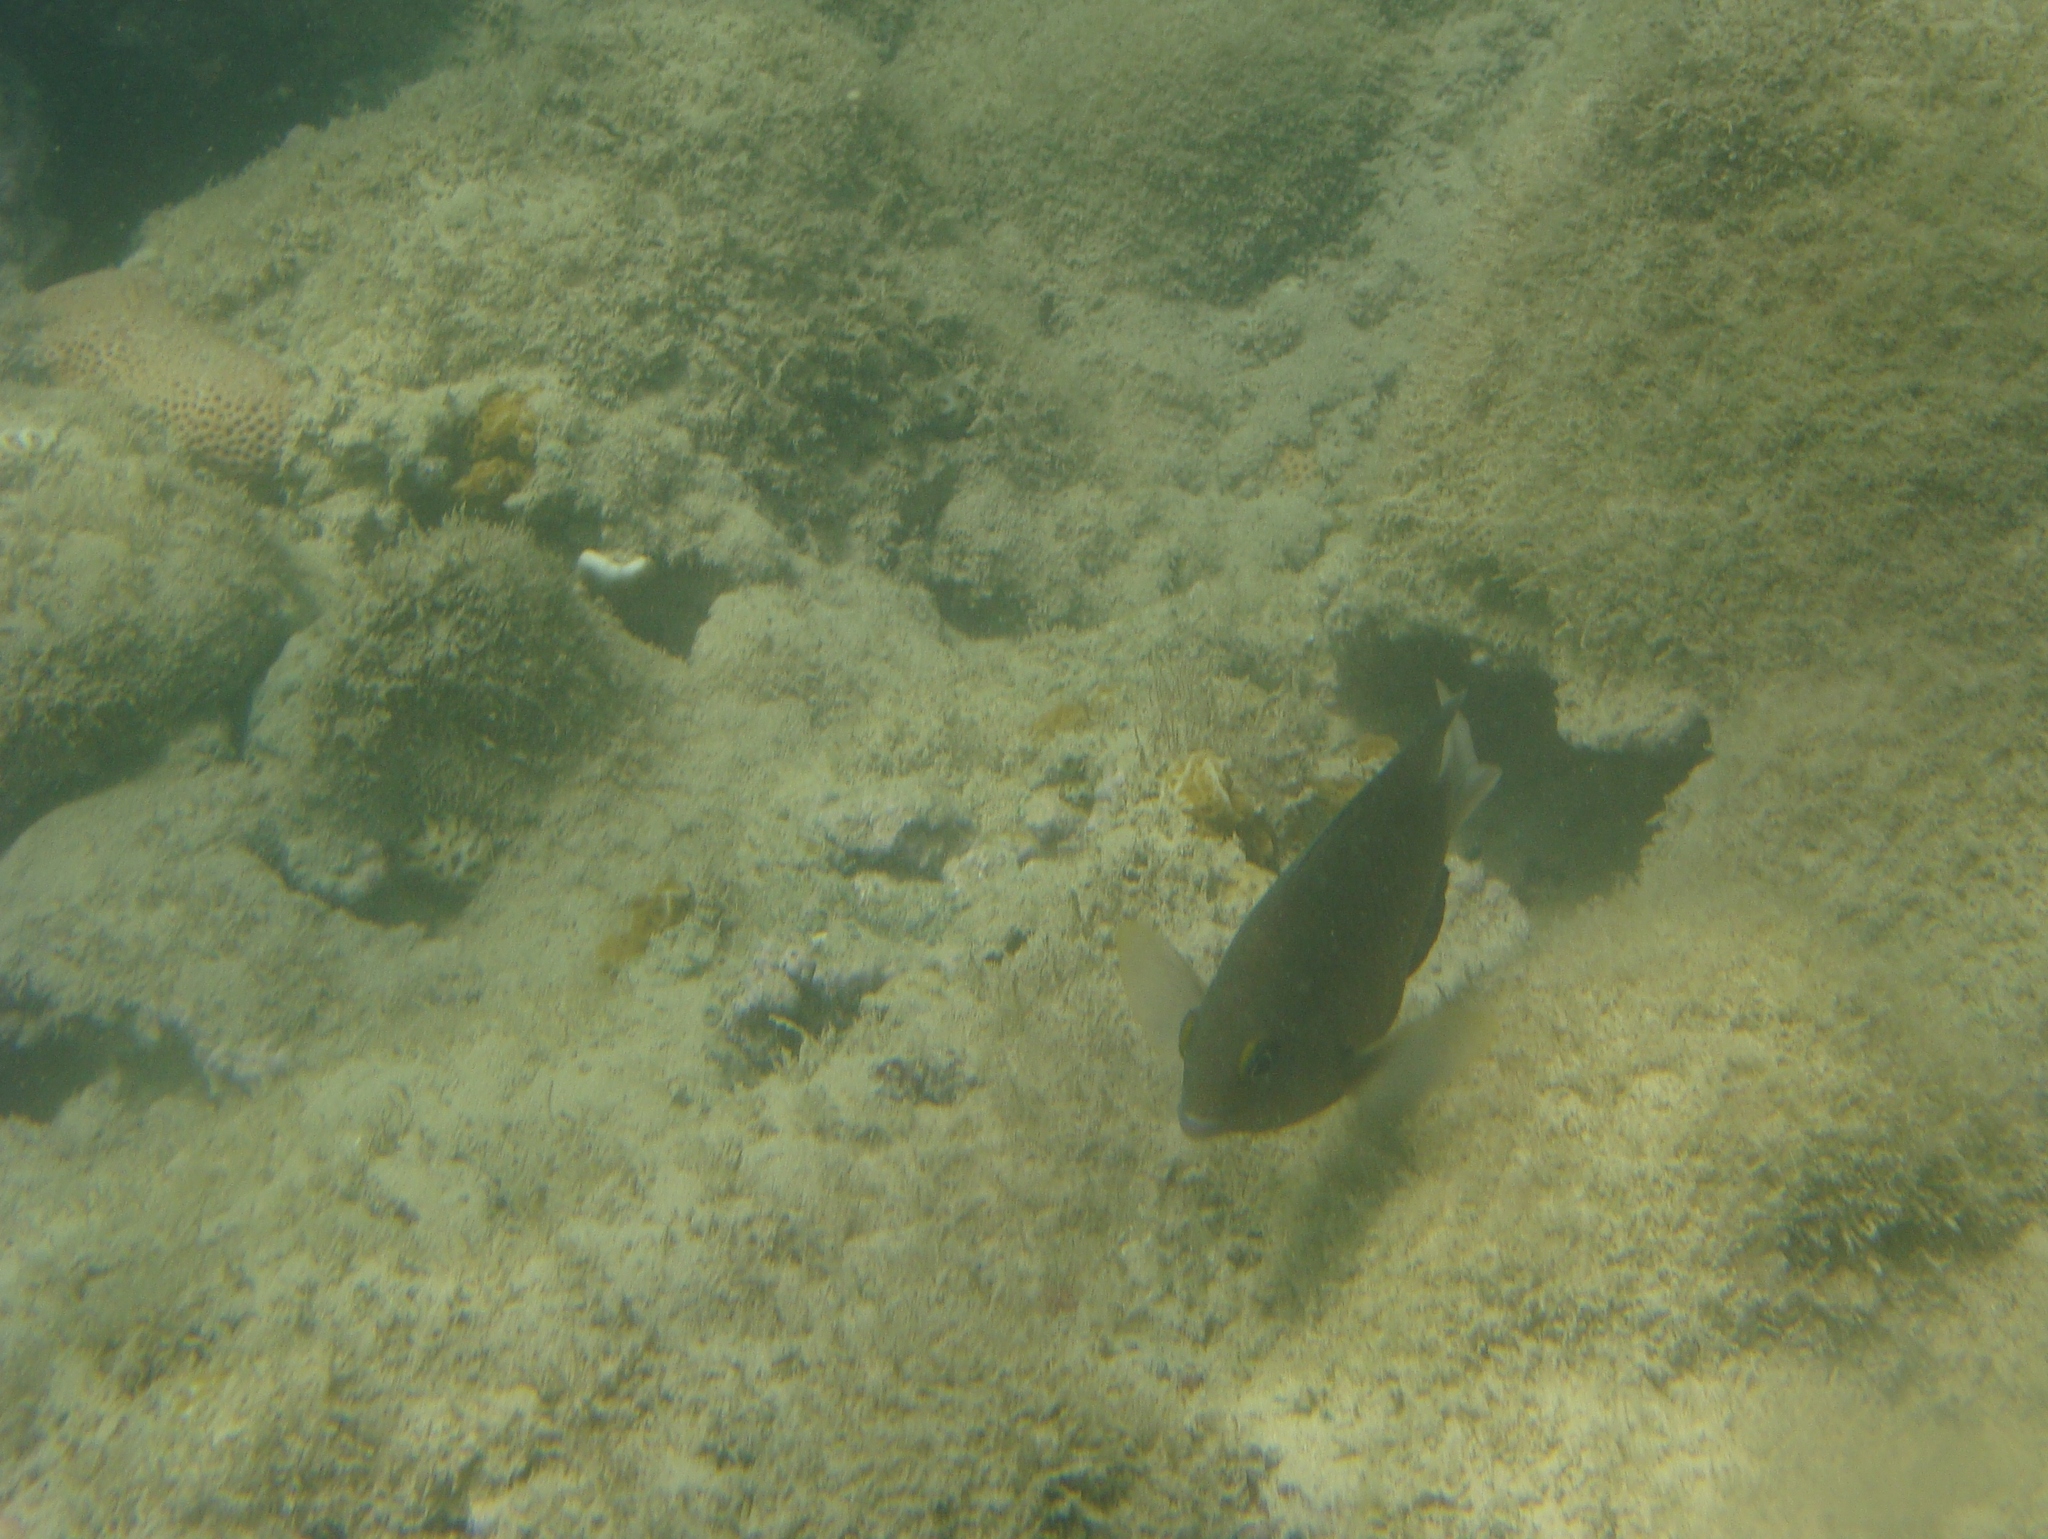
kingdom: Animalia
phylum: Chordata
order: Perciformes
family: Pomacentridae
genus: Stegastes
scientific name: Stegastes fuscus
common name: Brazilian damsel
